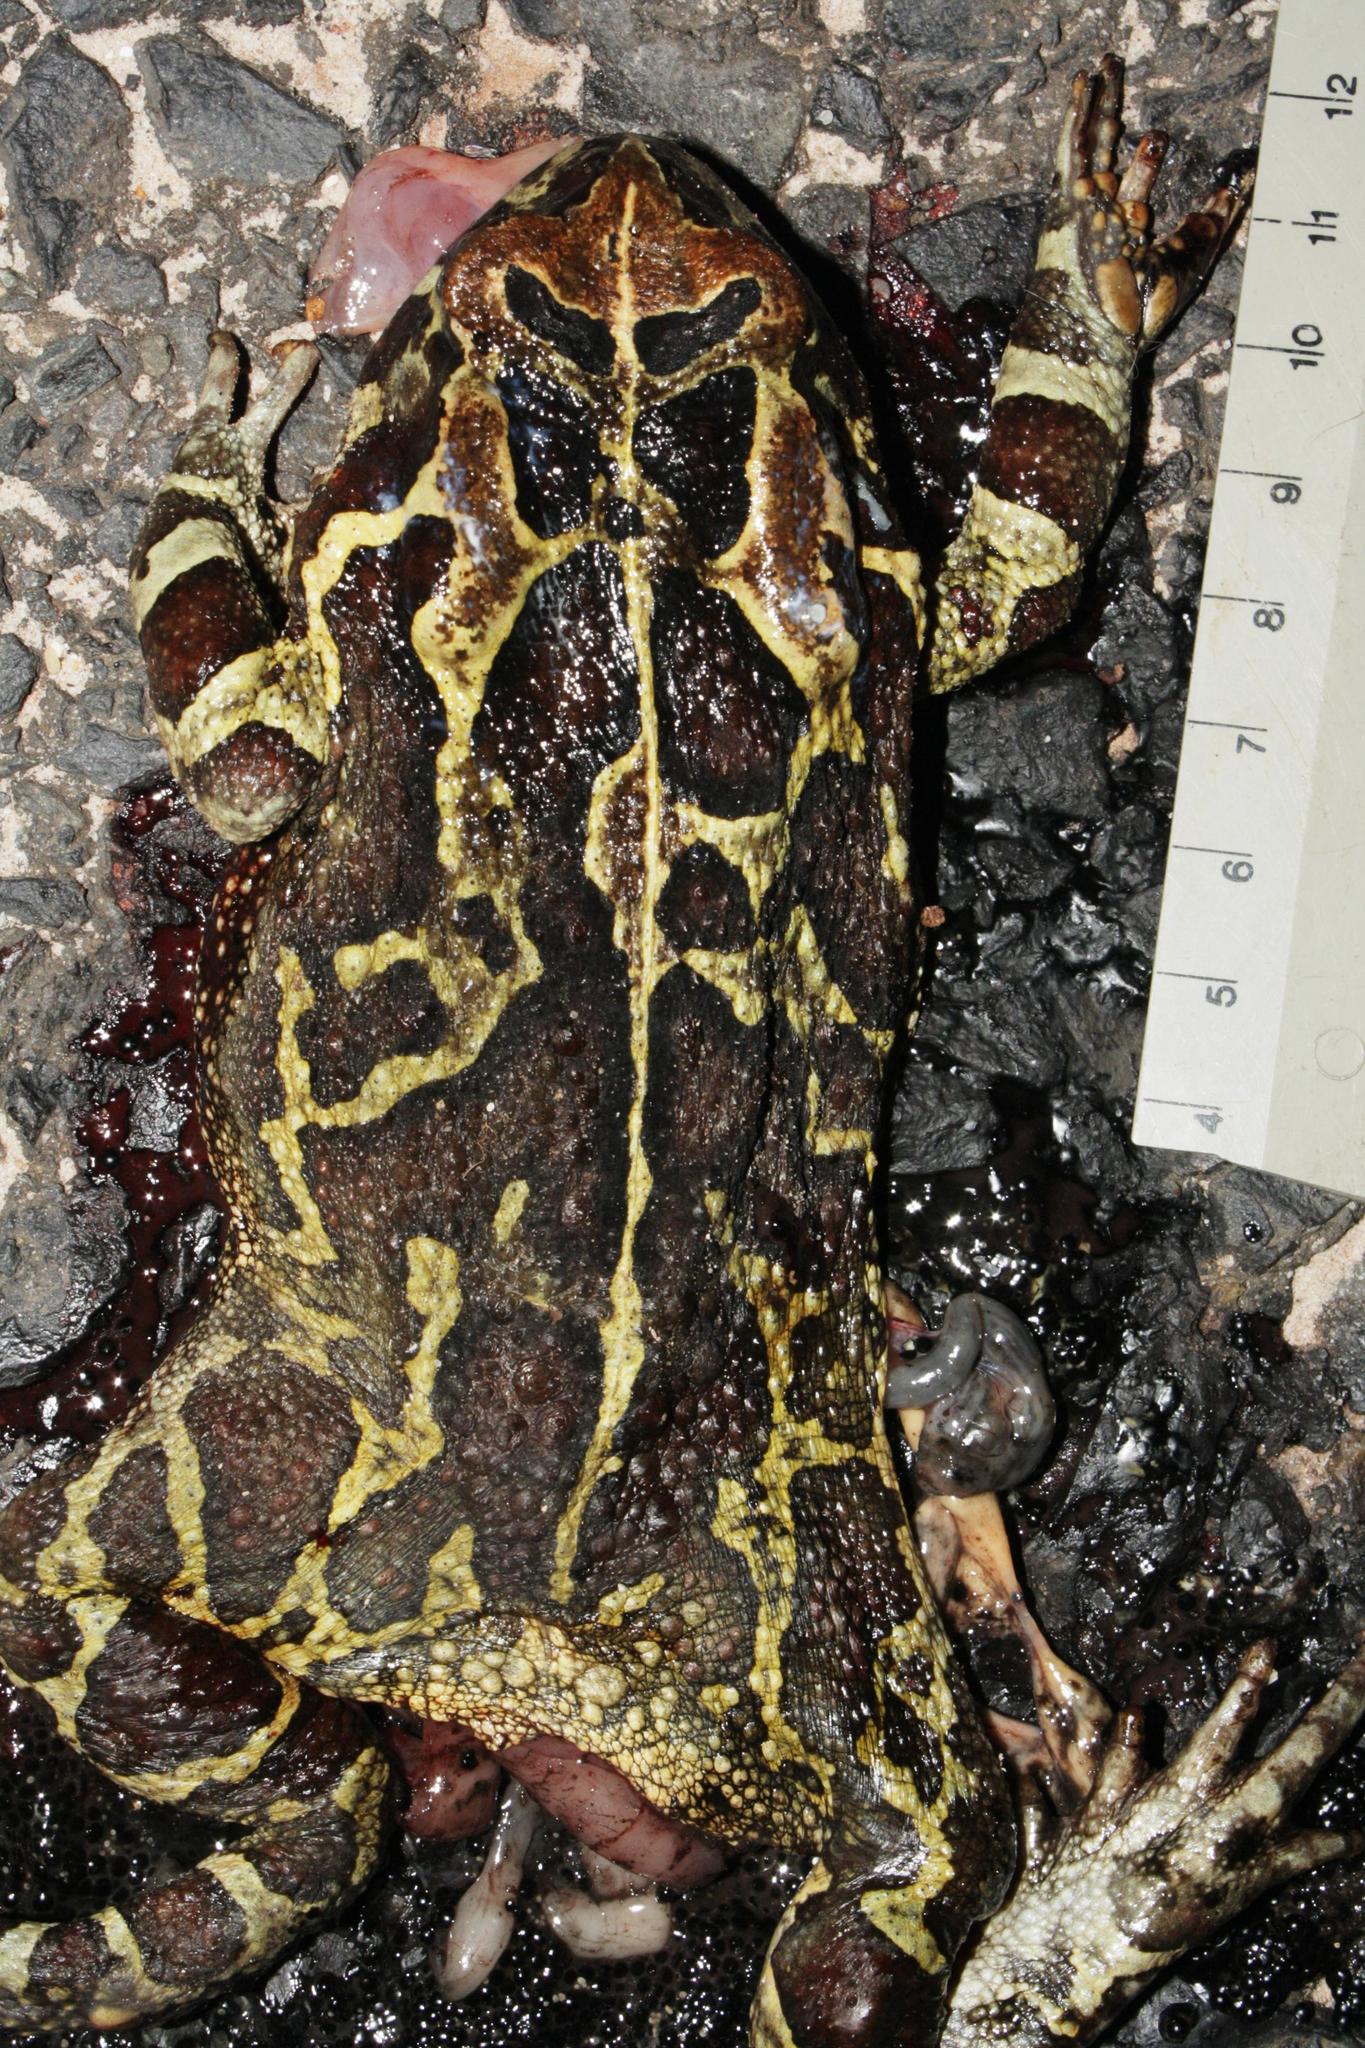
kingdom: Animalia
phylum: Chordata
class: Amphibia
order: Anura
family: Bufonidae
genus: Sclerophrys
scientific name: Sclerophrys pantherina
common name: Panther toad
